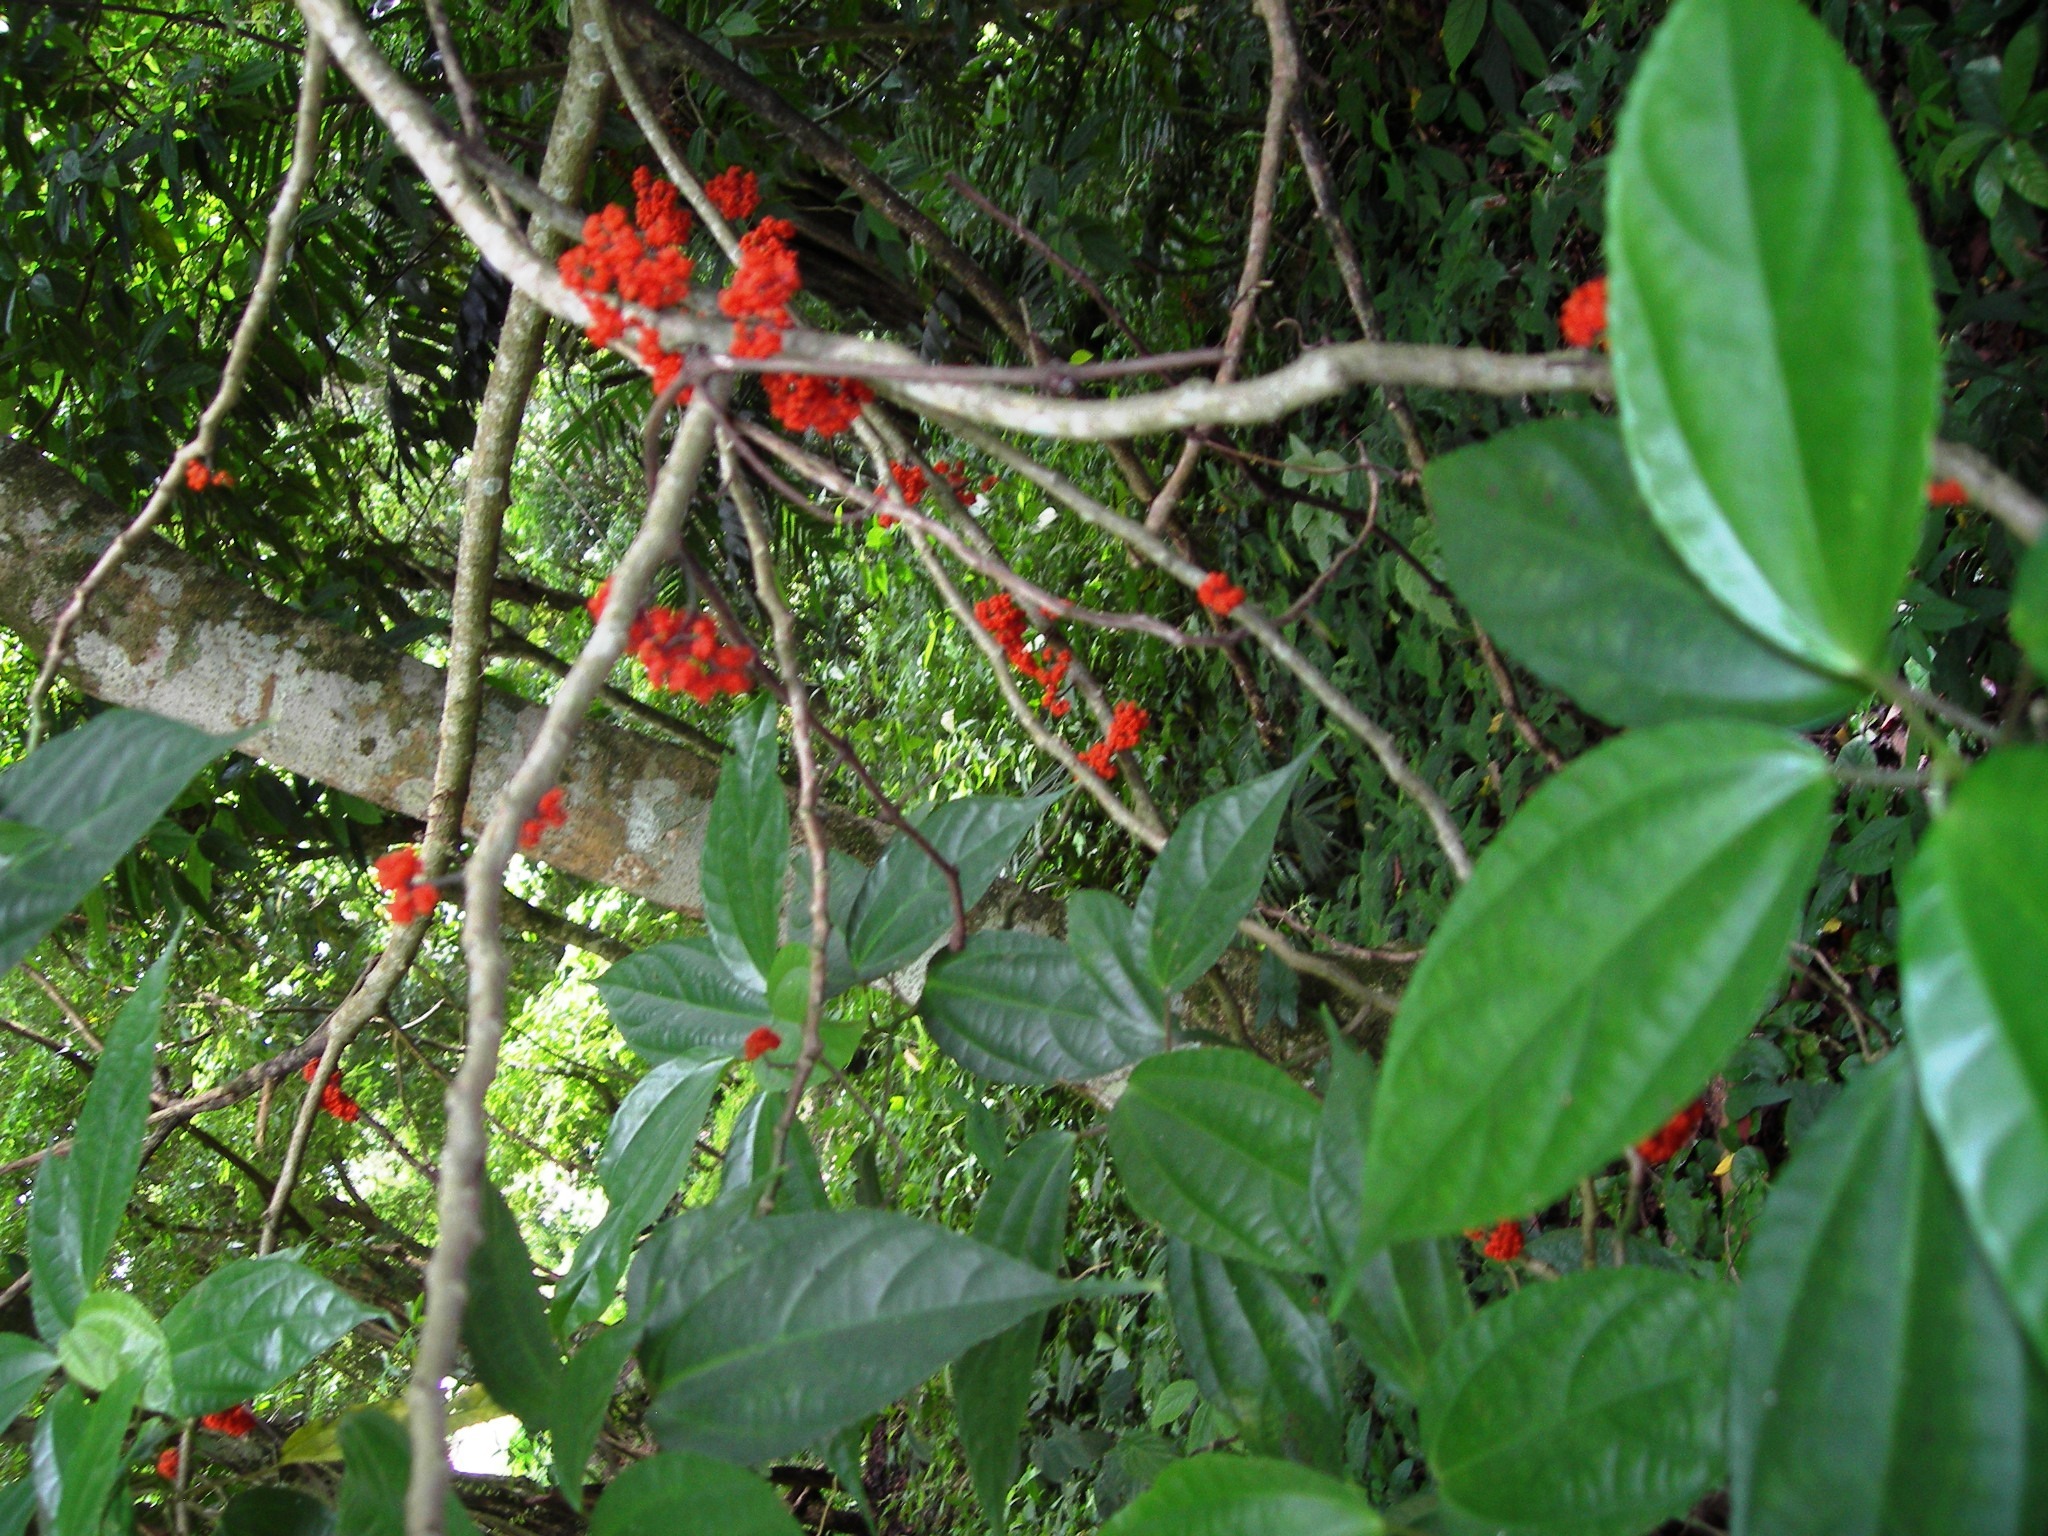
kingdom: Plantae
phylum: Tracheophyta
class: Magnoliopsida
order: Rosales
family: Urticaceae
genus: Urera
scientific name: Urera simplex
